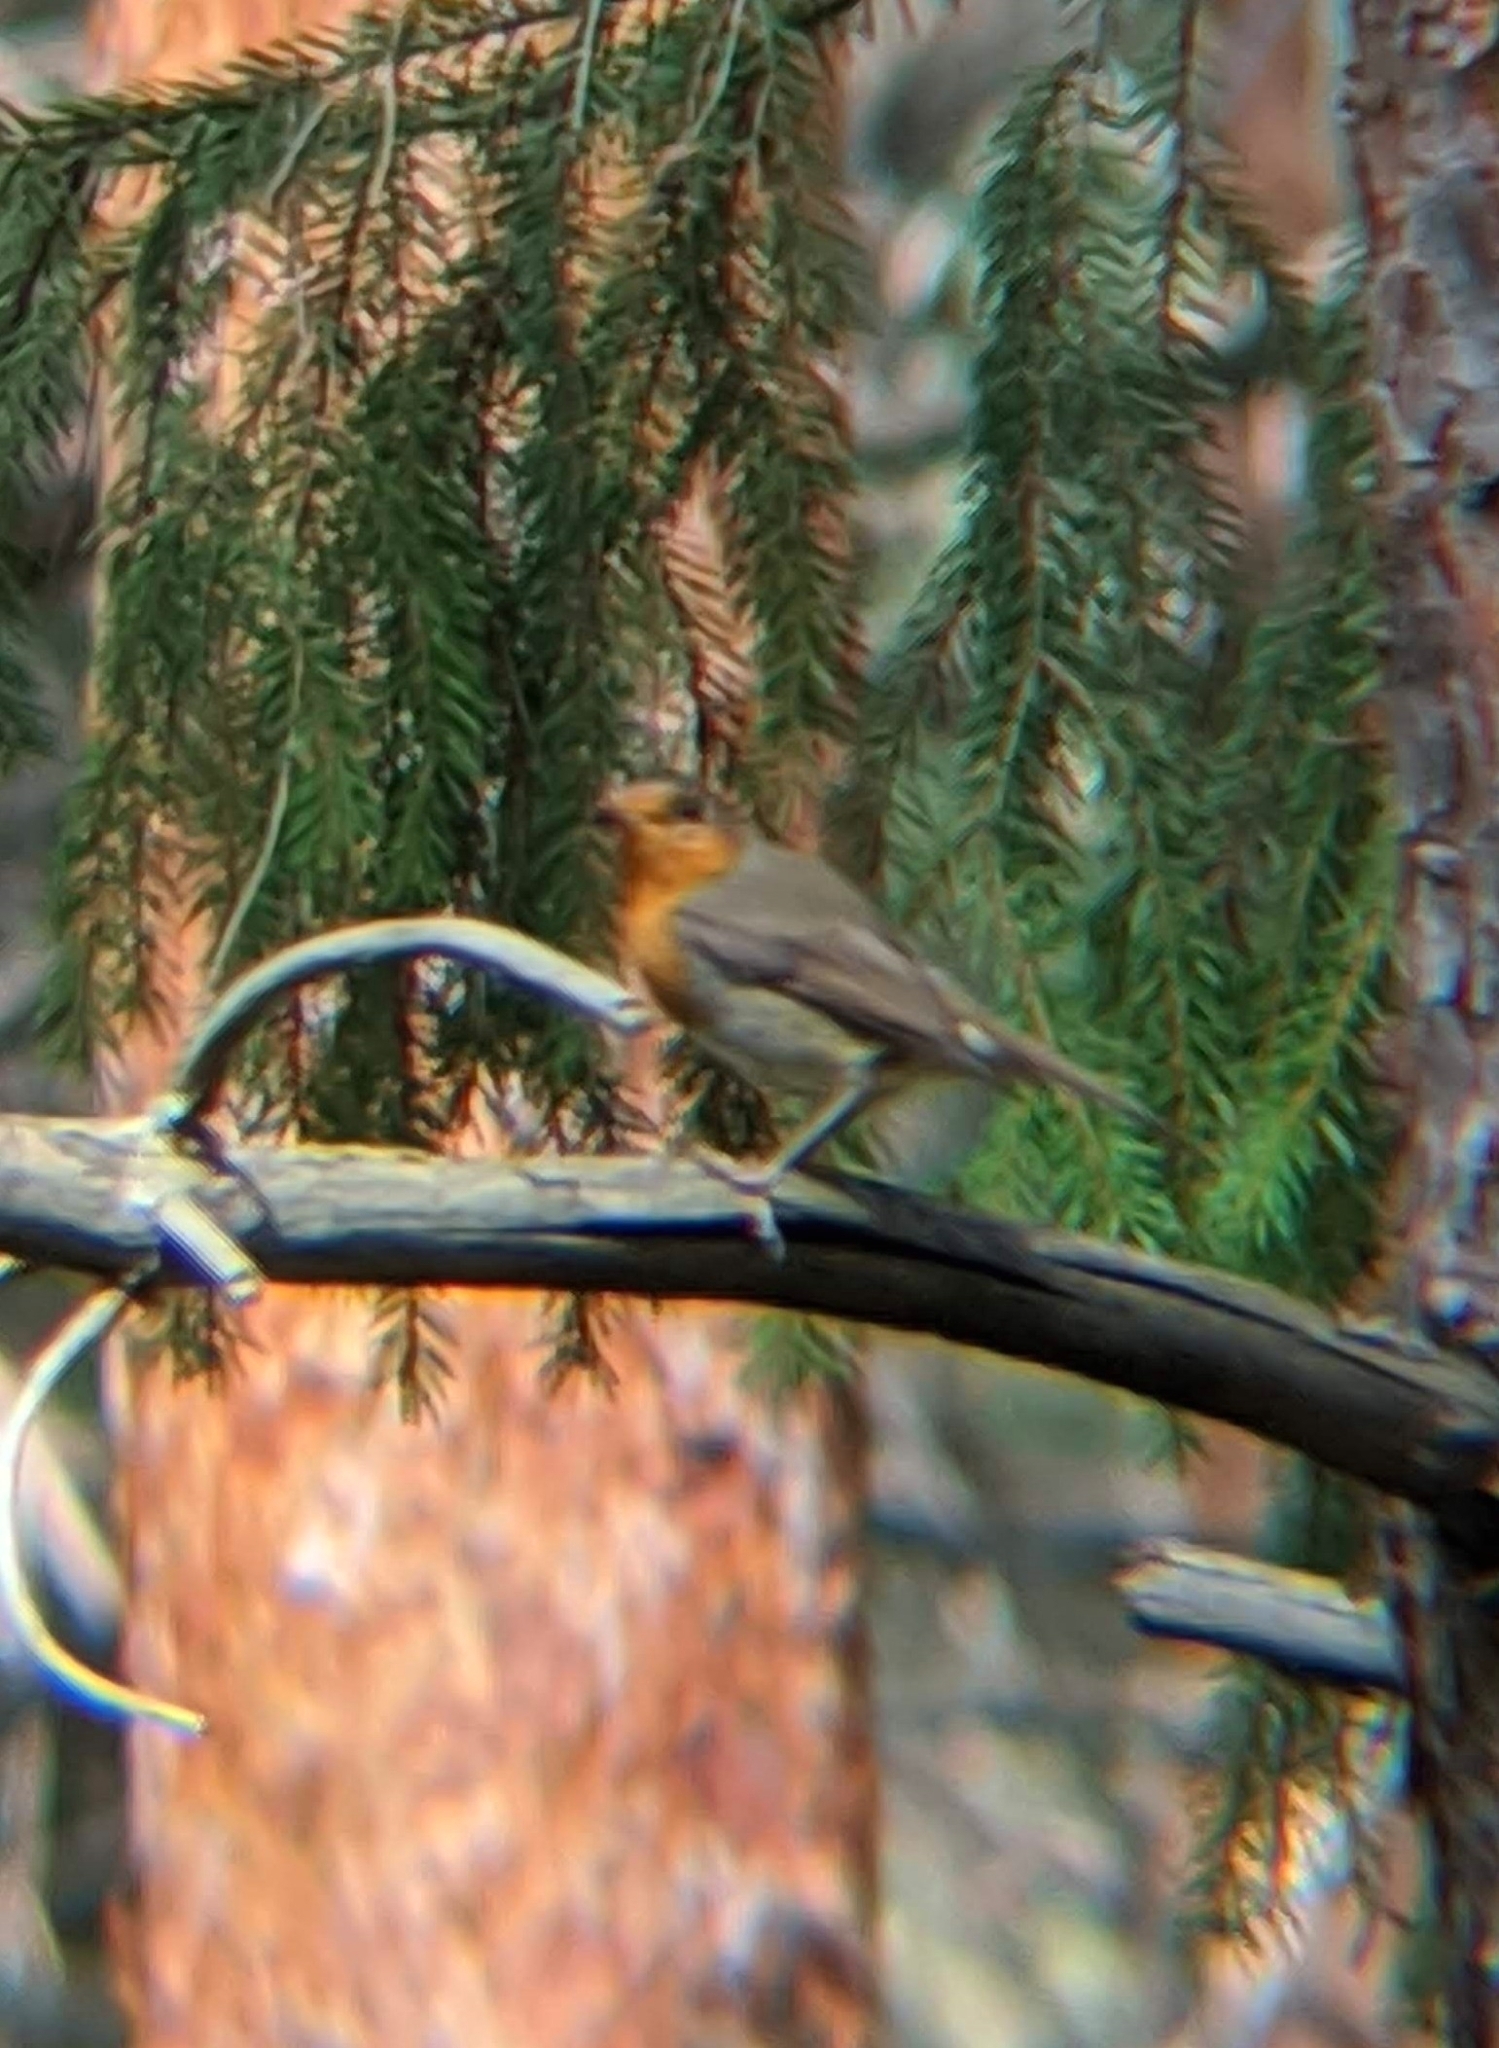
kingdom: Animalia
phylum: Chordata
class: Aves
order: Passeriformes
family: Muscicapidae
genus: Erithacus
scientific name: Erithacus rubecula
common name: European robin
